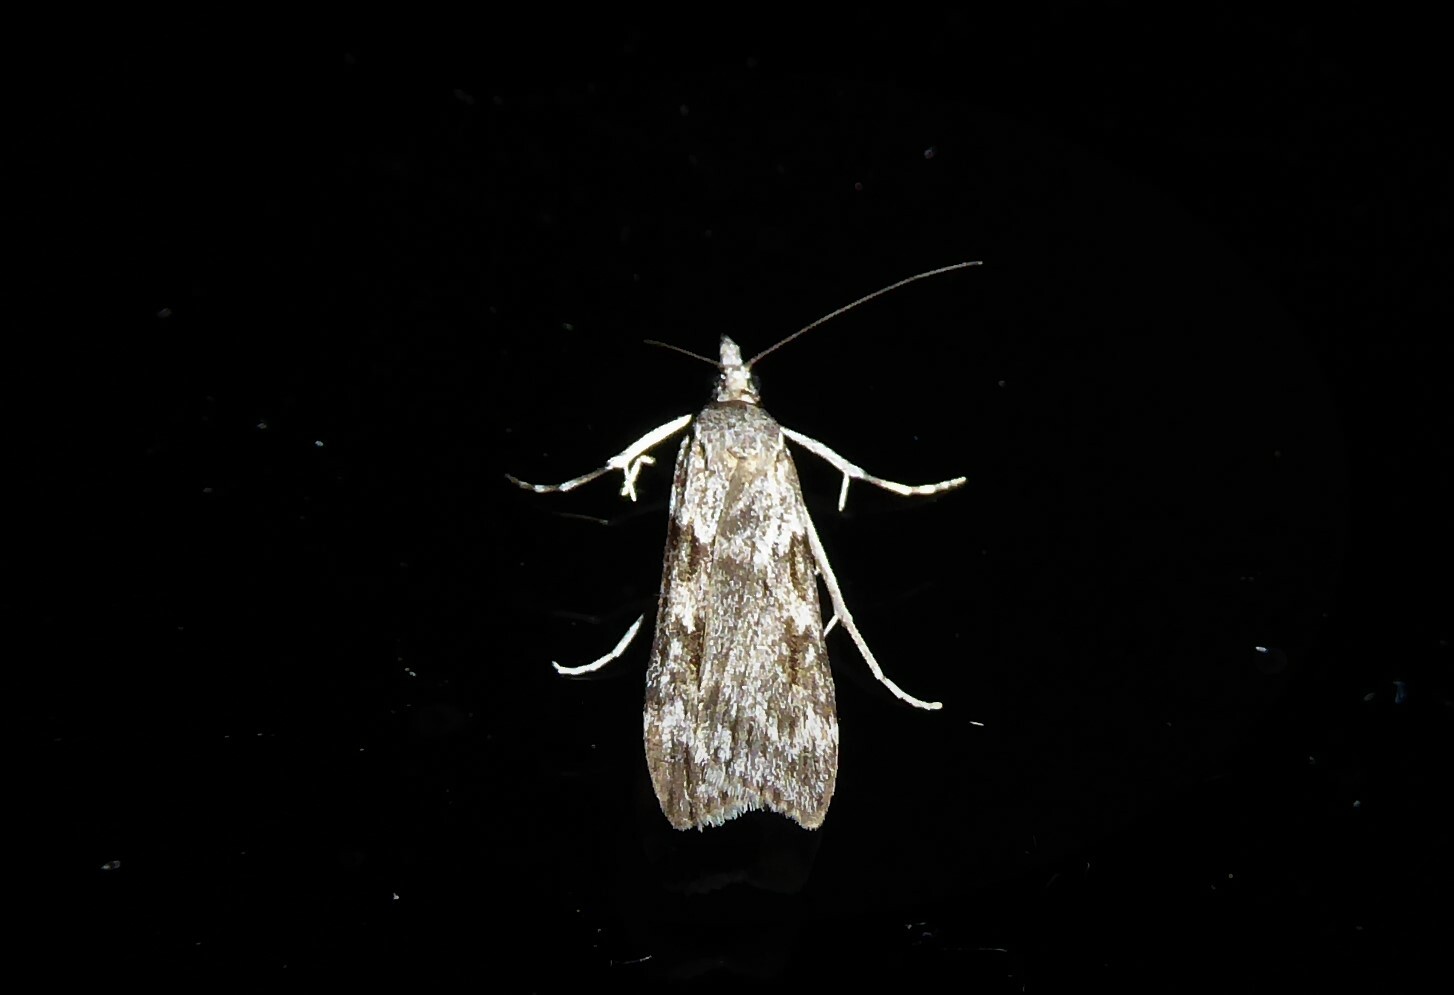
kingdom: Animalia
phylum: Arthropoda
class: Insecta
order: Lepidoptera
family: Crambidae
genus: Scoparia
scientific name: Scoparia halopis
